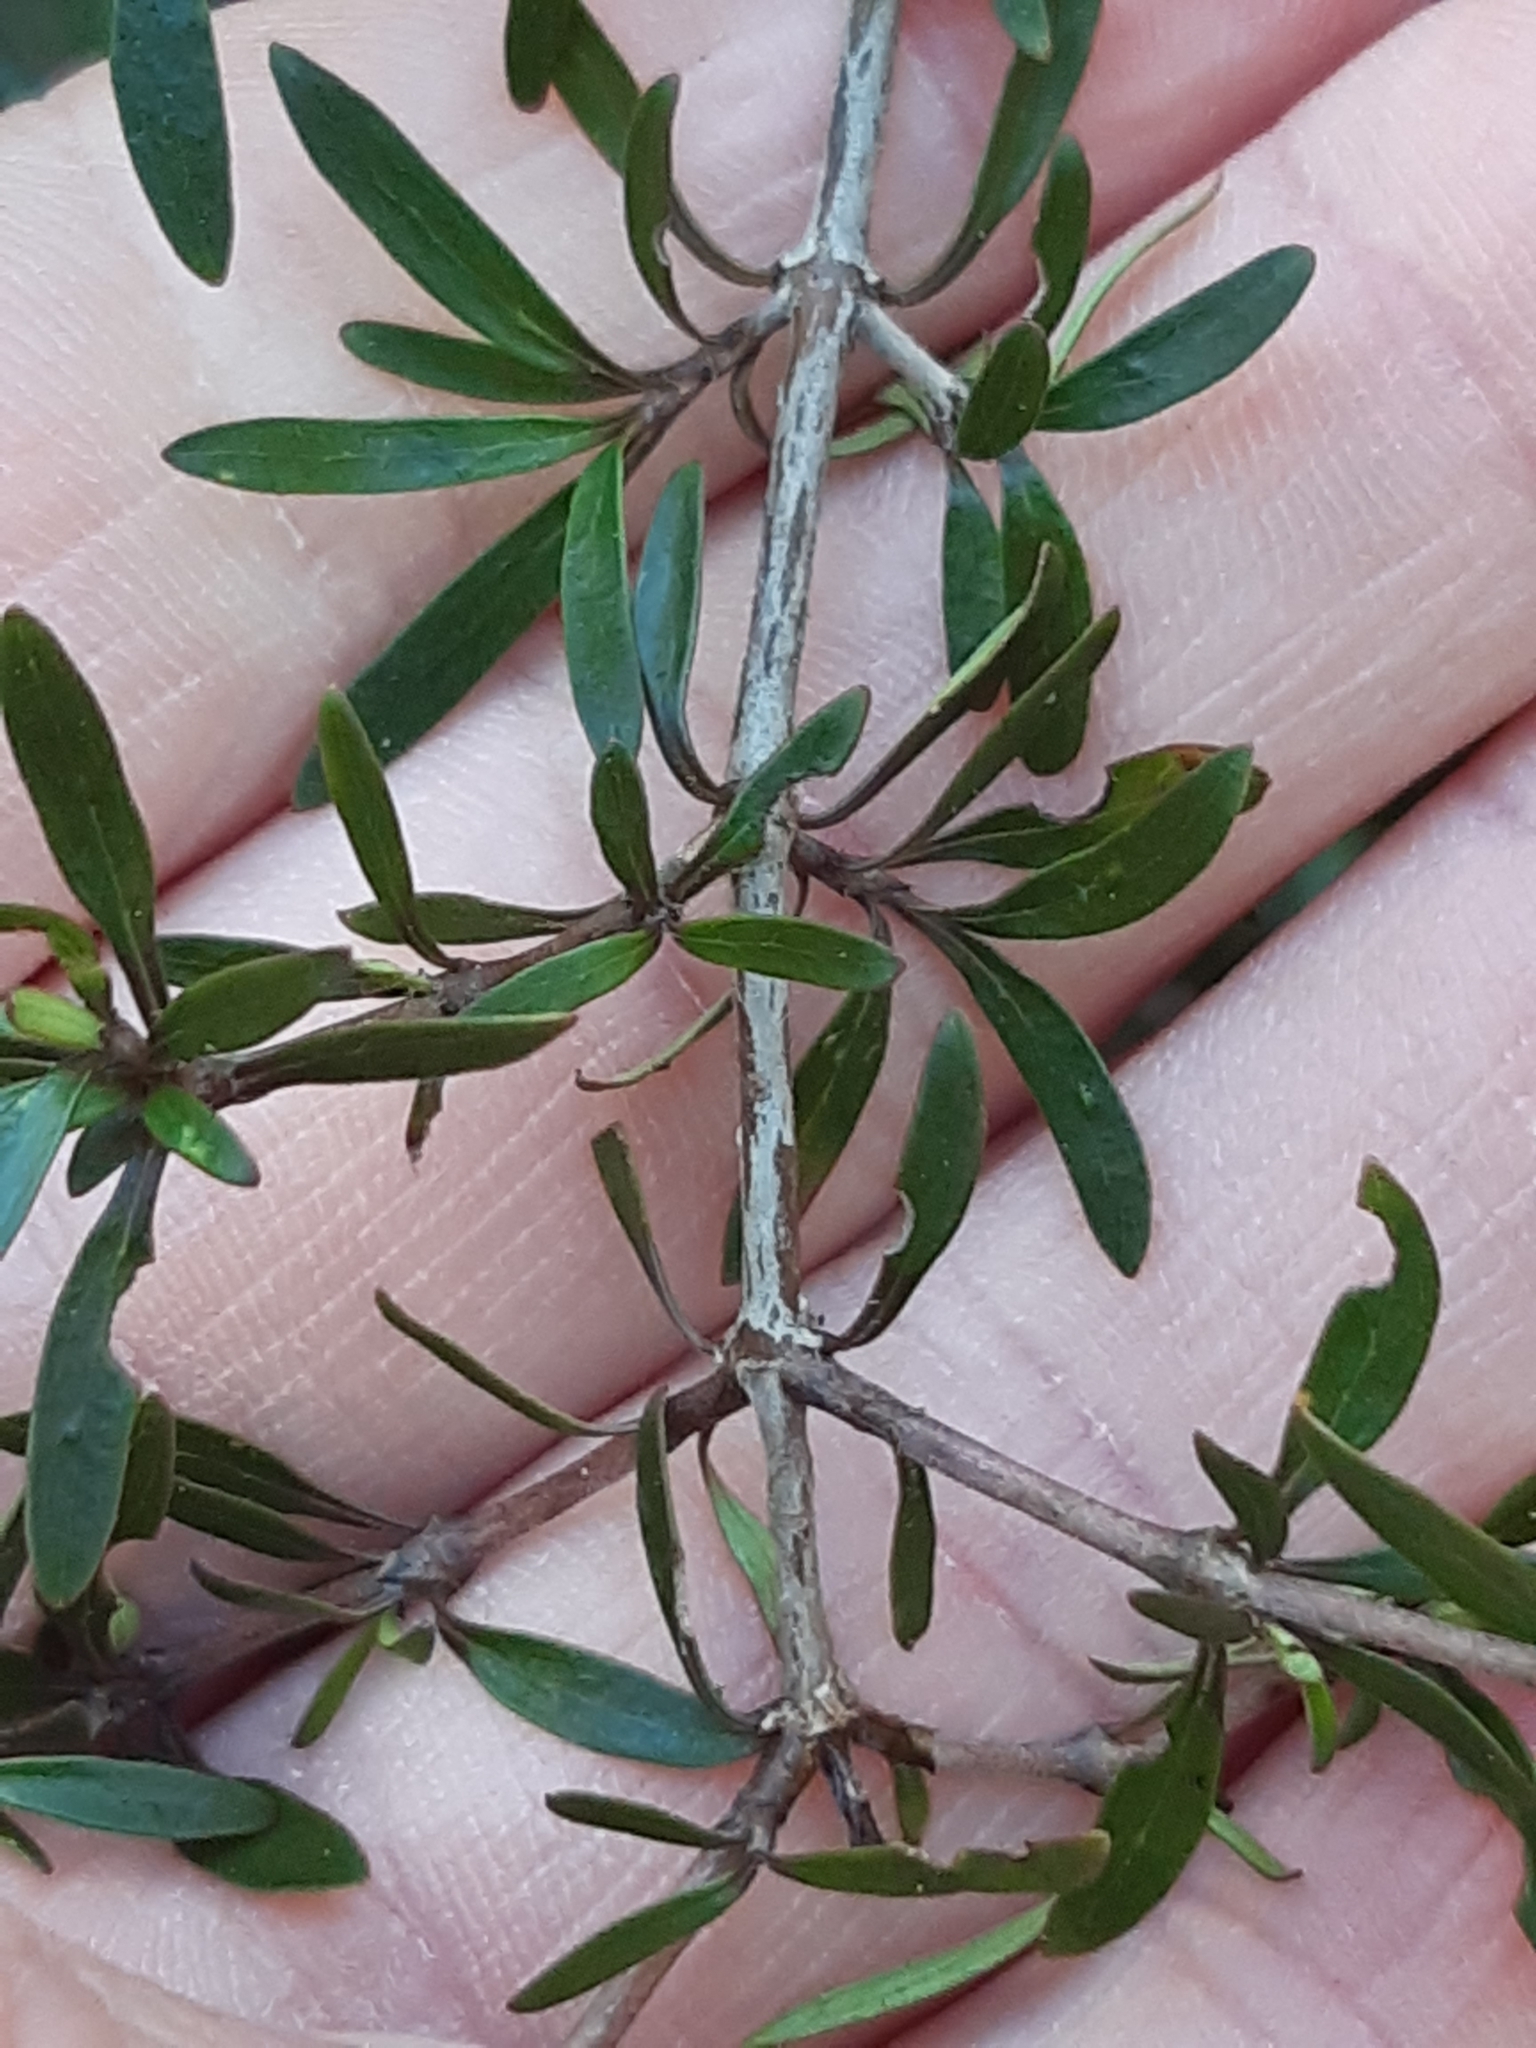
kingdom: Plantae
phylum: Tracheophyta
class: Magnoliopsida
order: Gentianales
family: Rubiaceae
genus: Coprosma
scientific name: Coprosma propinqua
